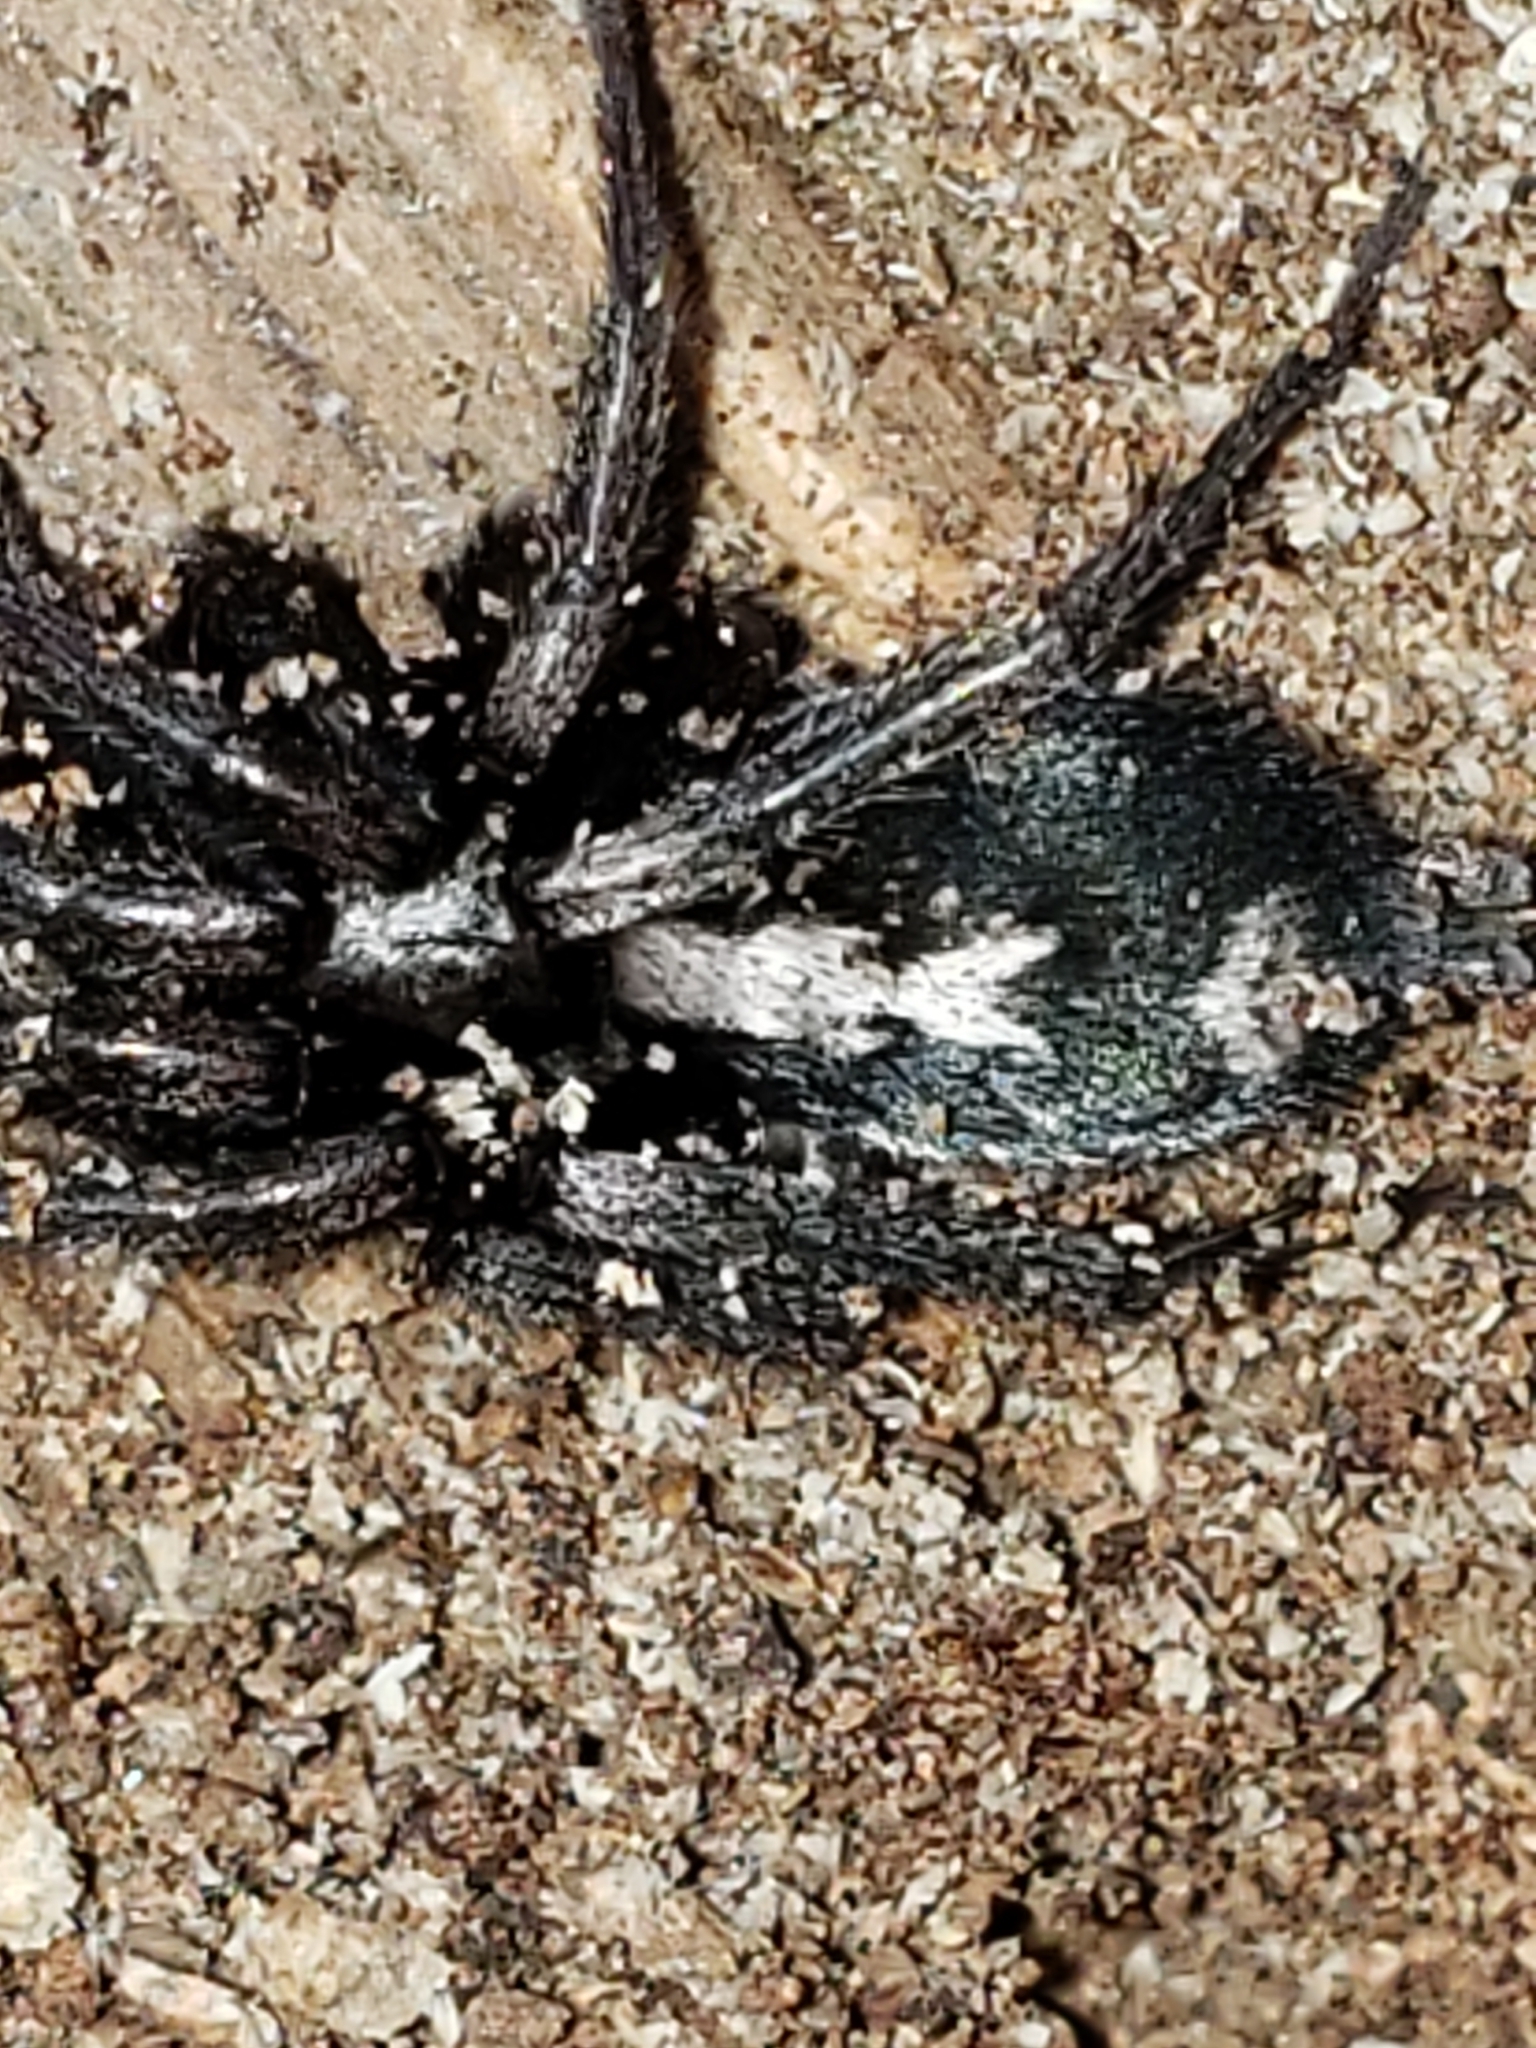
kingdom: Animalia
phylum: Arthropoda
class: Arachnida
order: Araneae
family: Gnaphosidae
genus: Herpyllus
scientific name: Herpyllus ecclesiasticus
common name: Eastern parson spider
